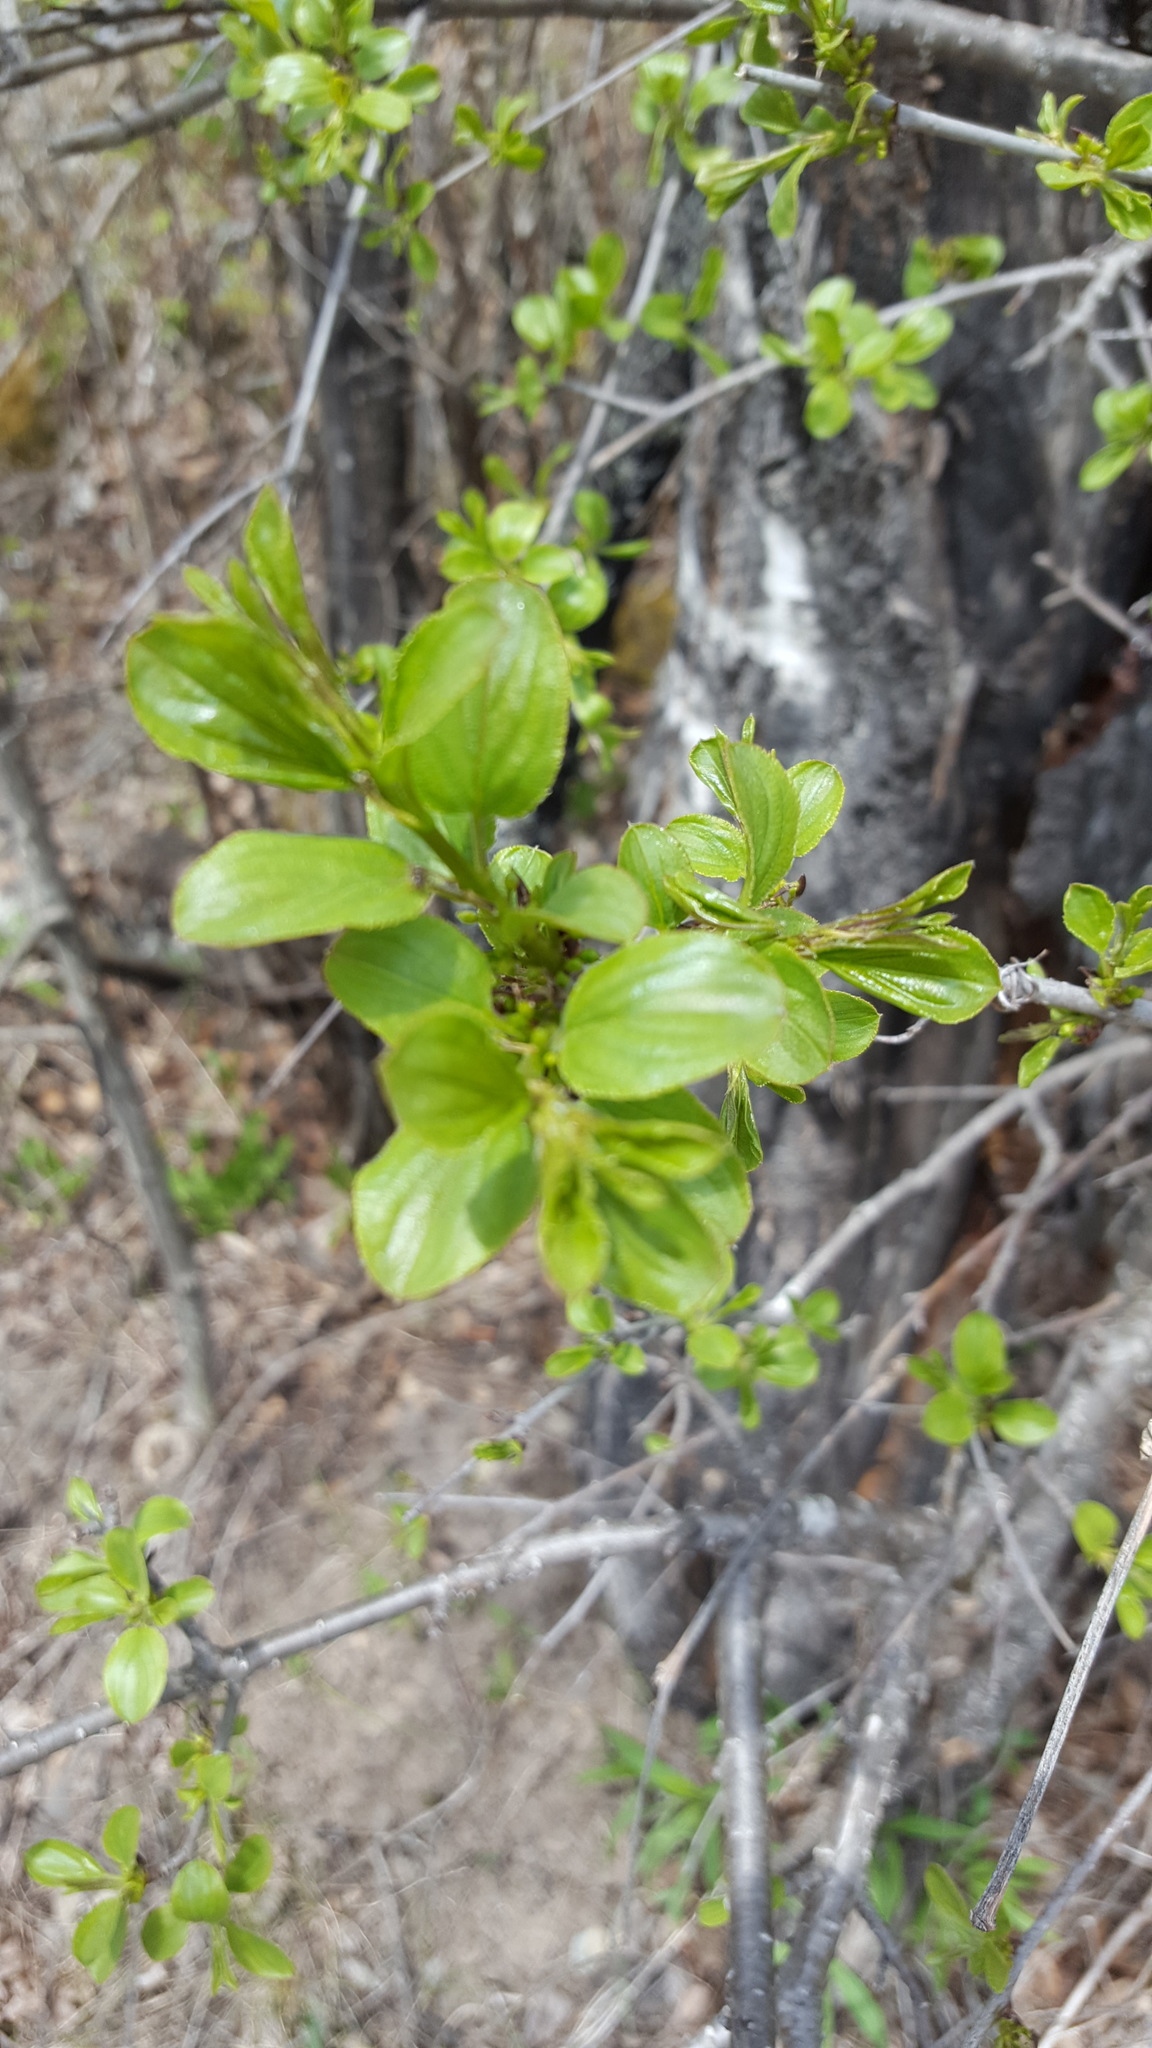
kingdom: Plantae
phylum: Tracheophyta
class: Magnoliopsida
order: Rosales
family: Rhamnaceae
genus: Rhamnus
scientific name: Rhamnus cathartica
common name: Common buckthorn
